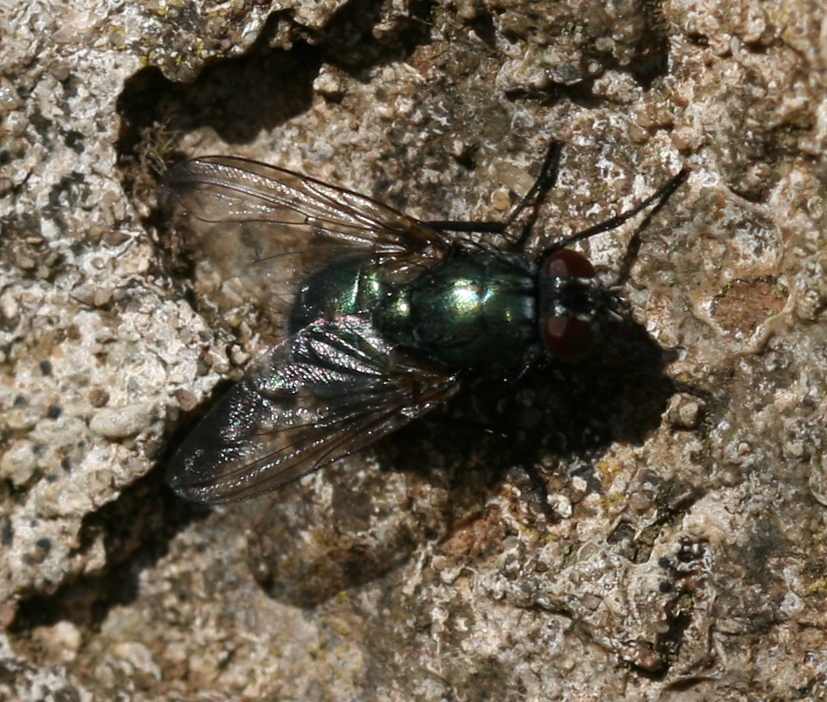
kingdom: Animalia
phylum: Arthropoda
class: Insecta
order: Diptera
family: Muscidae
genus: Dasyphora
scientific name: Dasyphora cyanella
